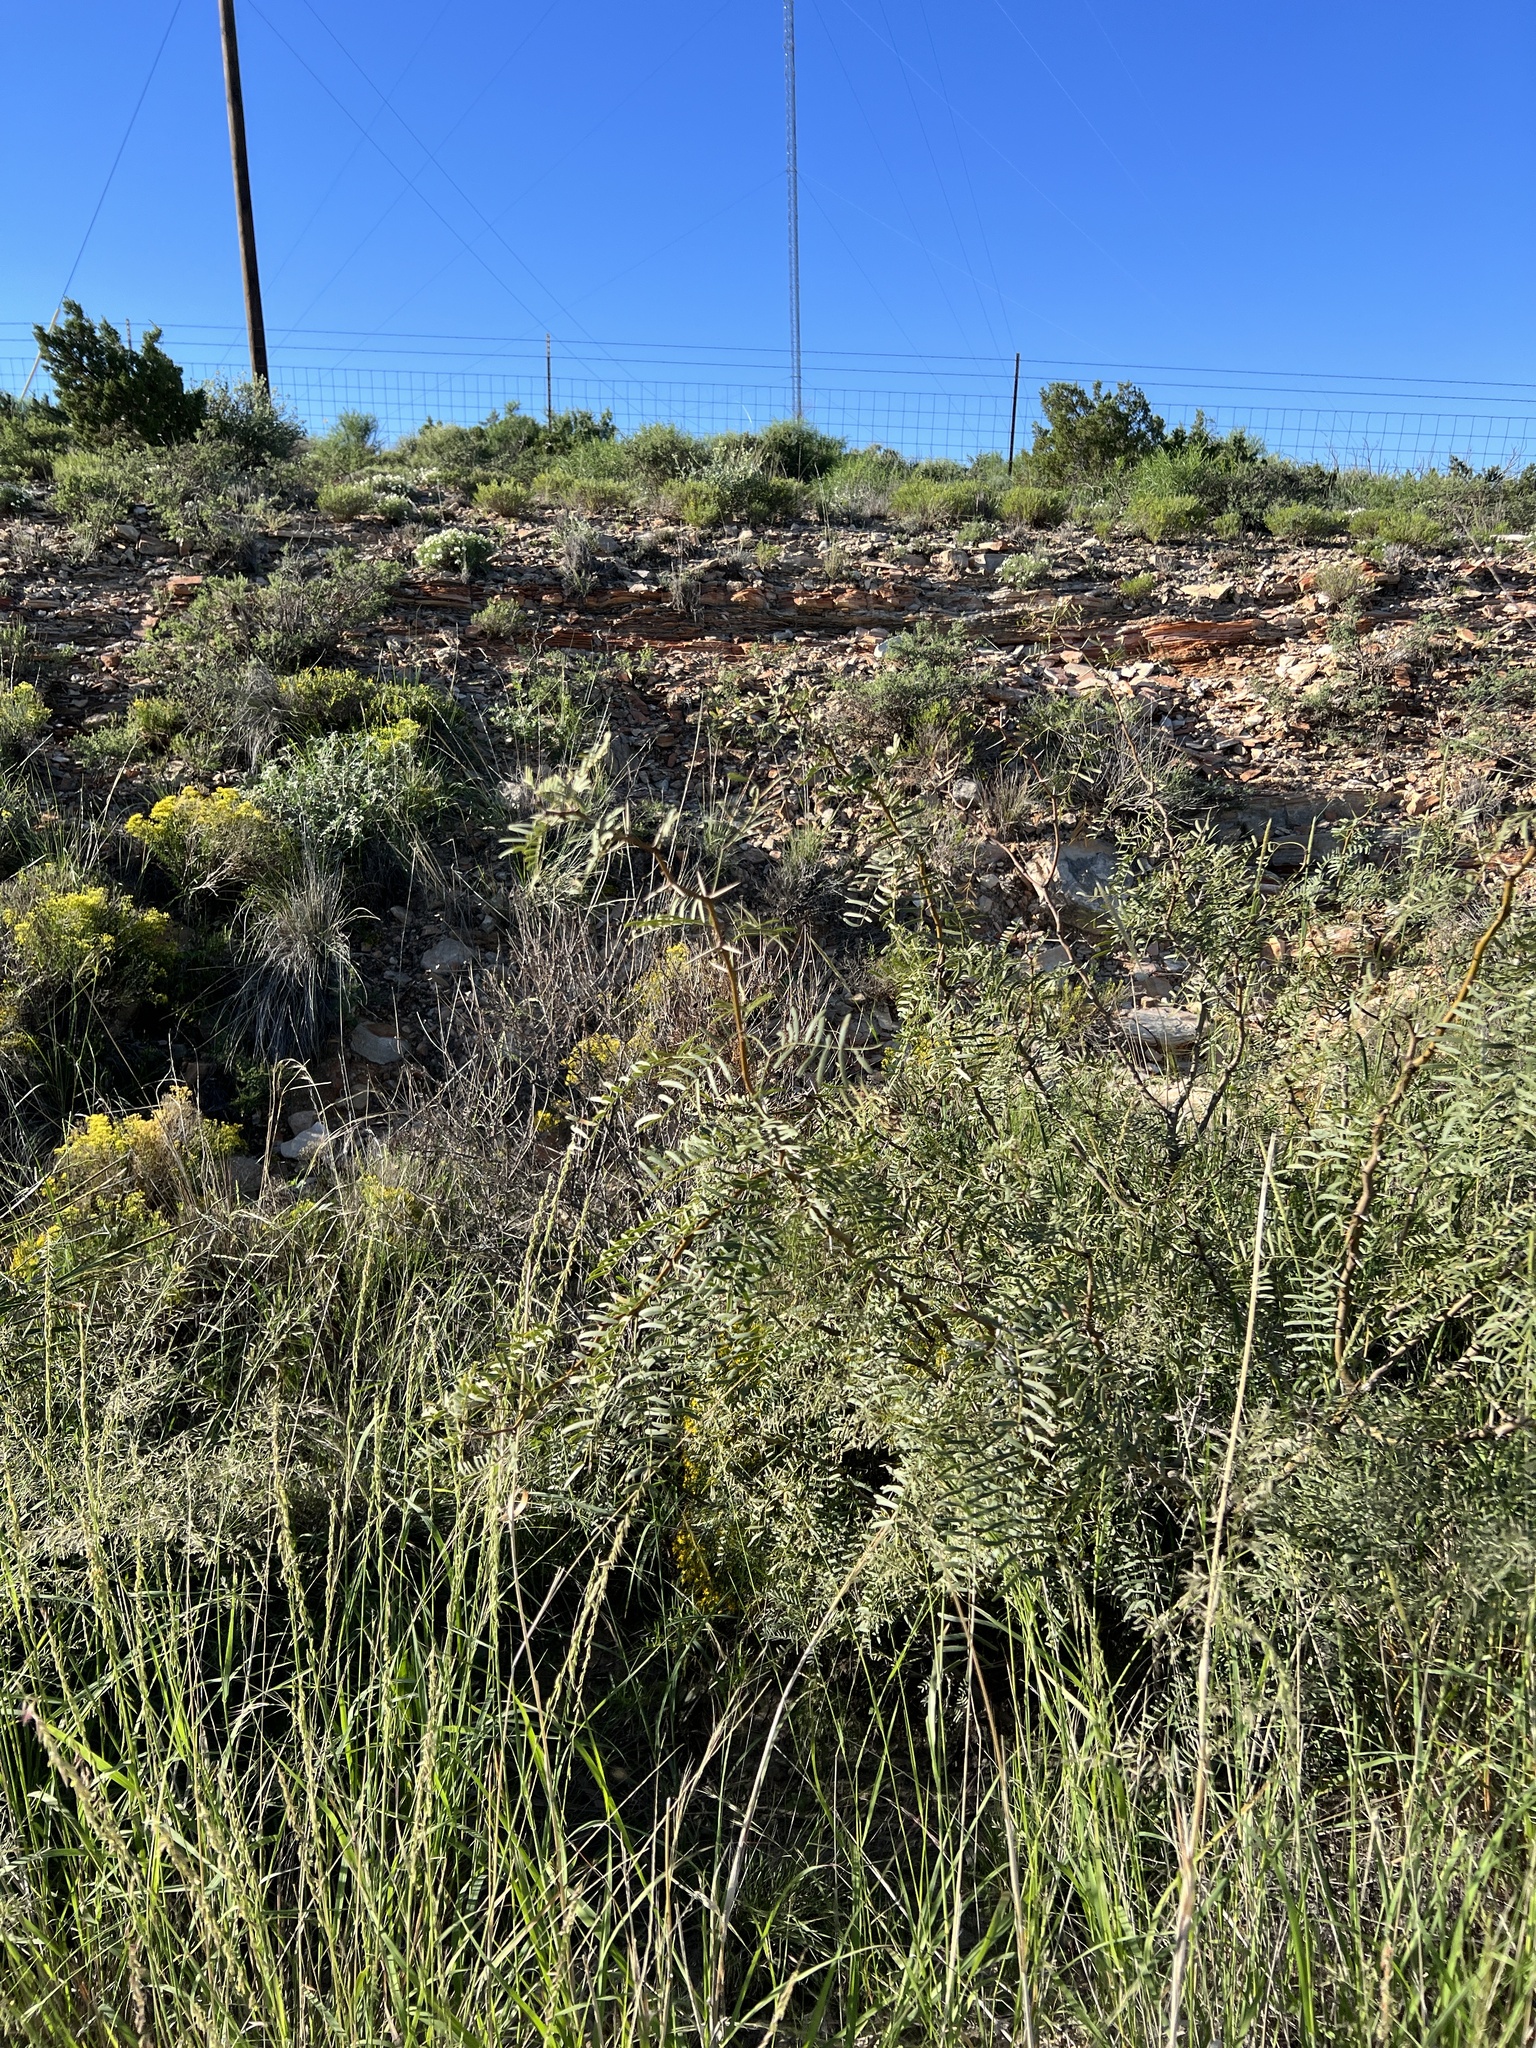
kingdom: Plantae
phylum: Tracheophyta
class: Magnoliopsida
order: Fabales
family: Fabaceae
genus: Prosopis
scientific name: Prosopis glandulosa
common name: Honey mesquite
